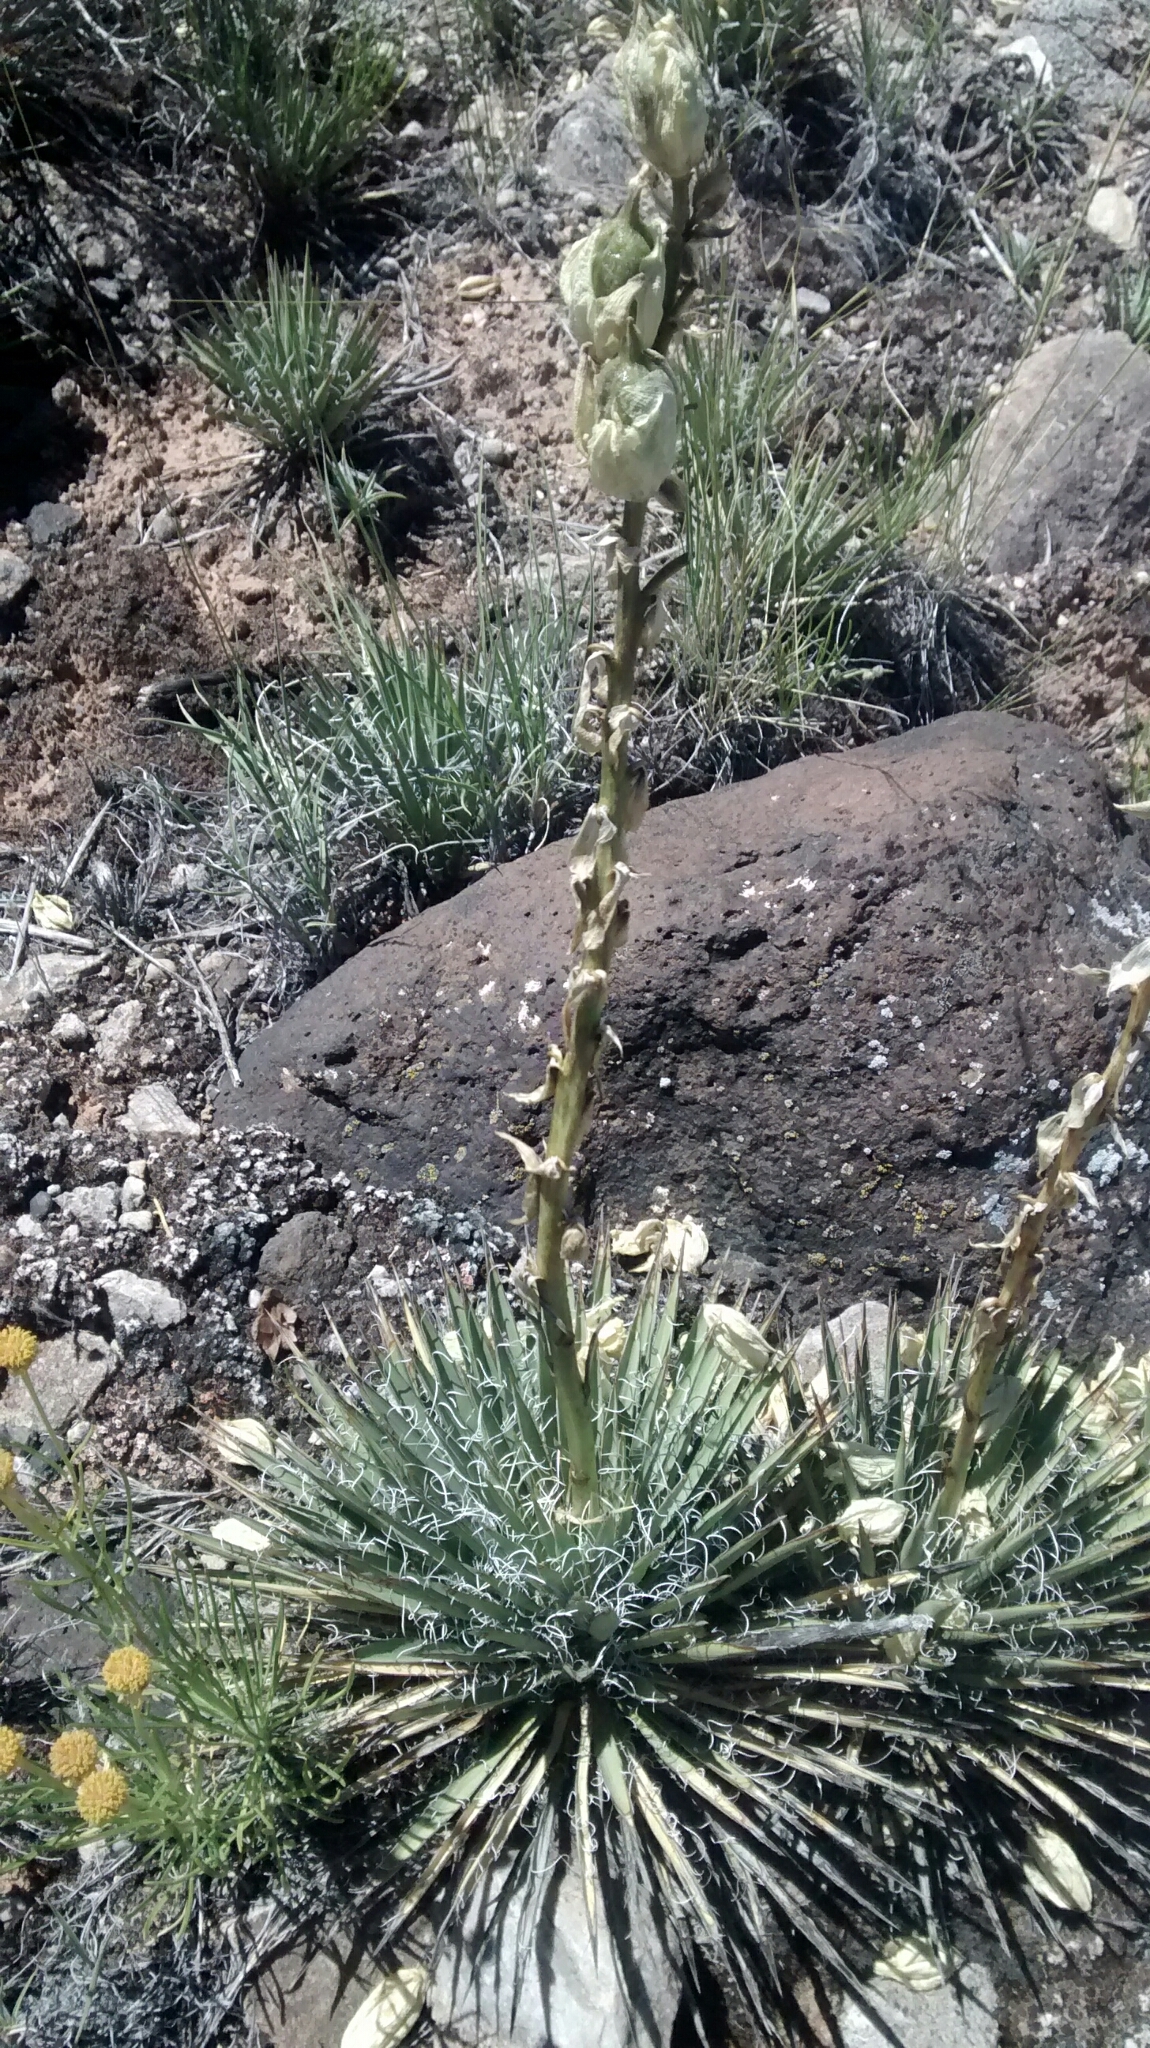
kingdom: Plantae
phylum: Tracheophyta
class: Liliopsida
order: Asparagales
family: Asparagaceae
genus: Yucca
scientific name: Yucca harrimaniae
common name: Harriman's yucca
